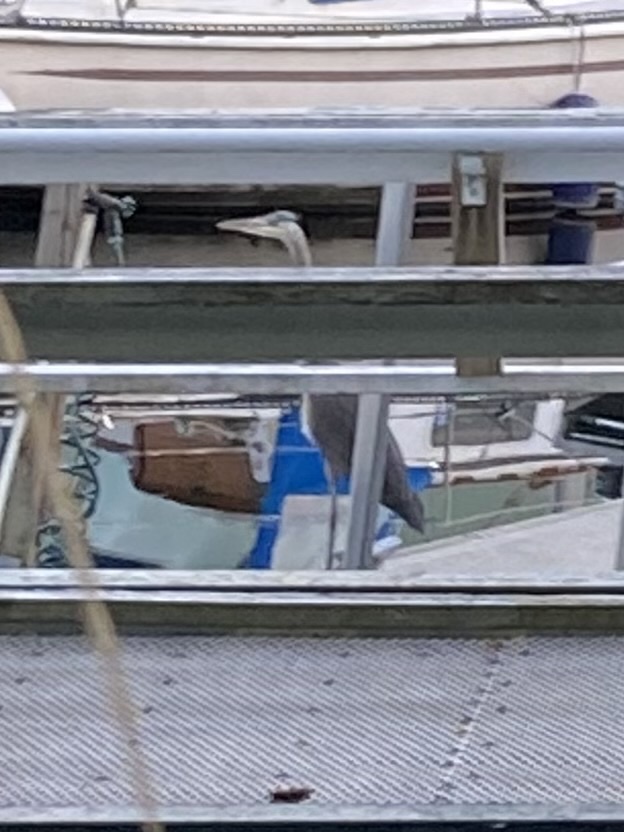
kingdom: Animalia
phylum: Chordata
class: Aves
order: Pelecaniformes
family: Ardeidae
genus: Ardea
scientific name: Ardea herodias
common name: Great blue heron
